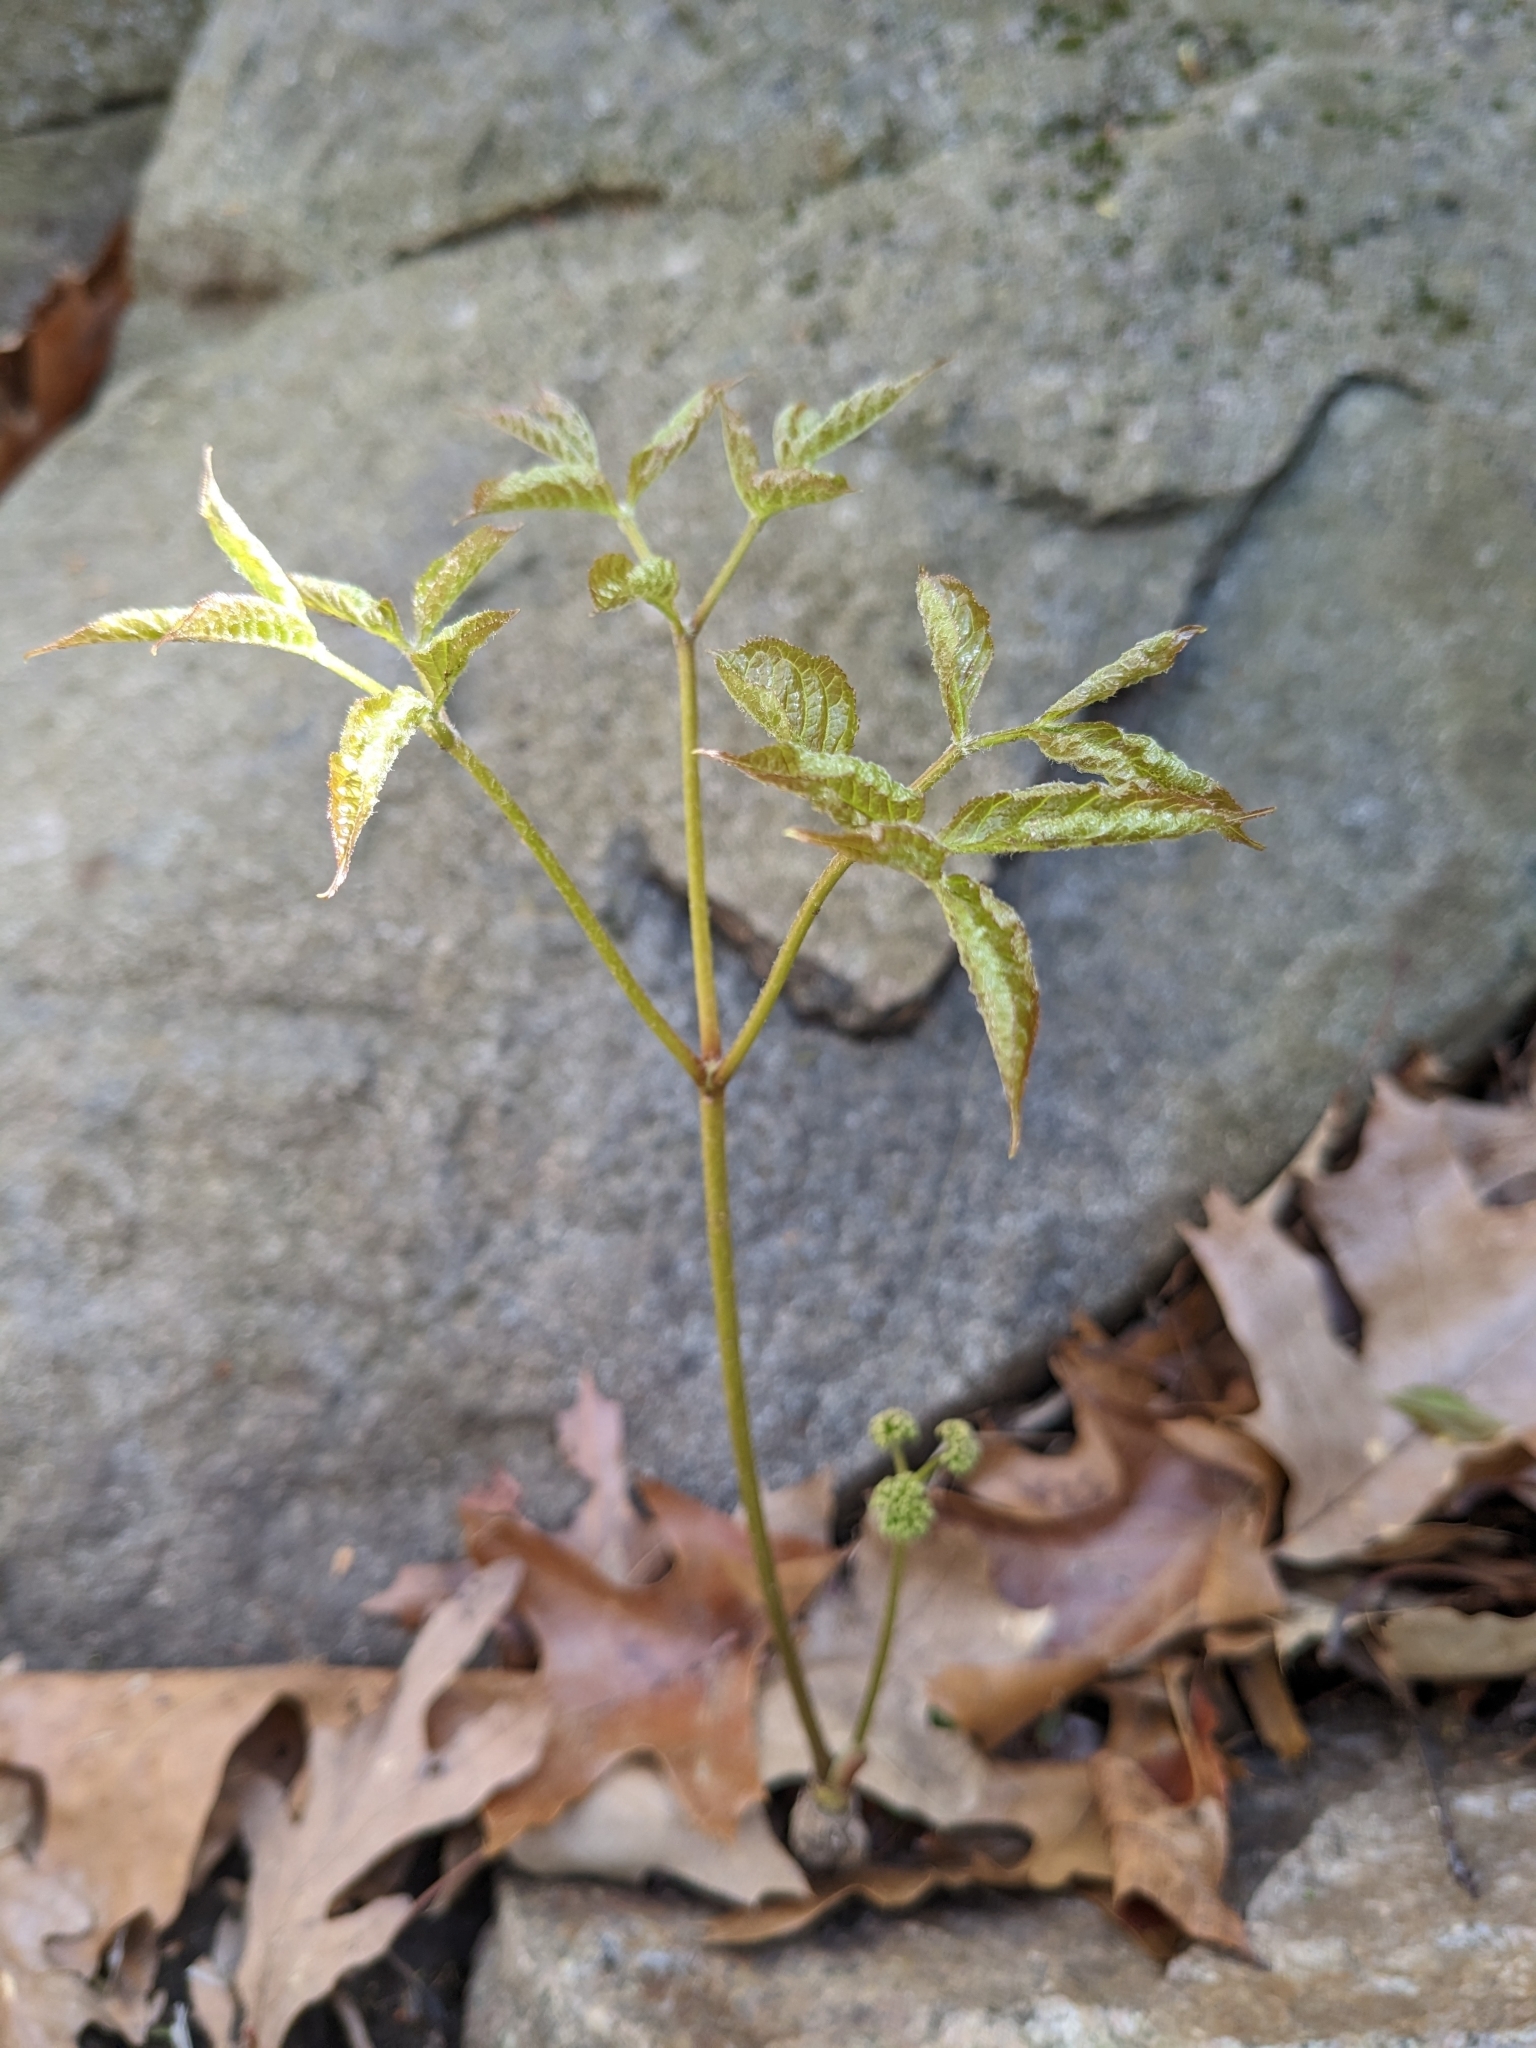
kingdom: Plantae
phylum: Tracheophyta
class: Magnoliopsida
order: Apiales
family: Araliaceae
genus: Aralia
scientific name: Aralia nudicaulis
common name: Wild sarsaparilla
